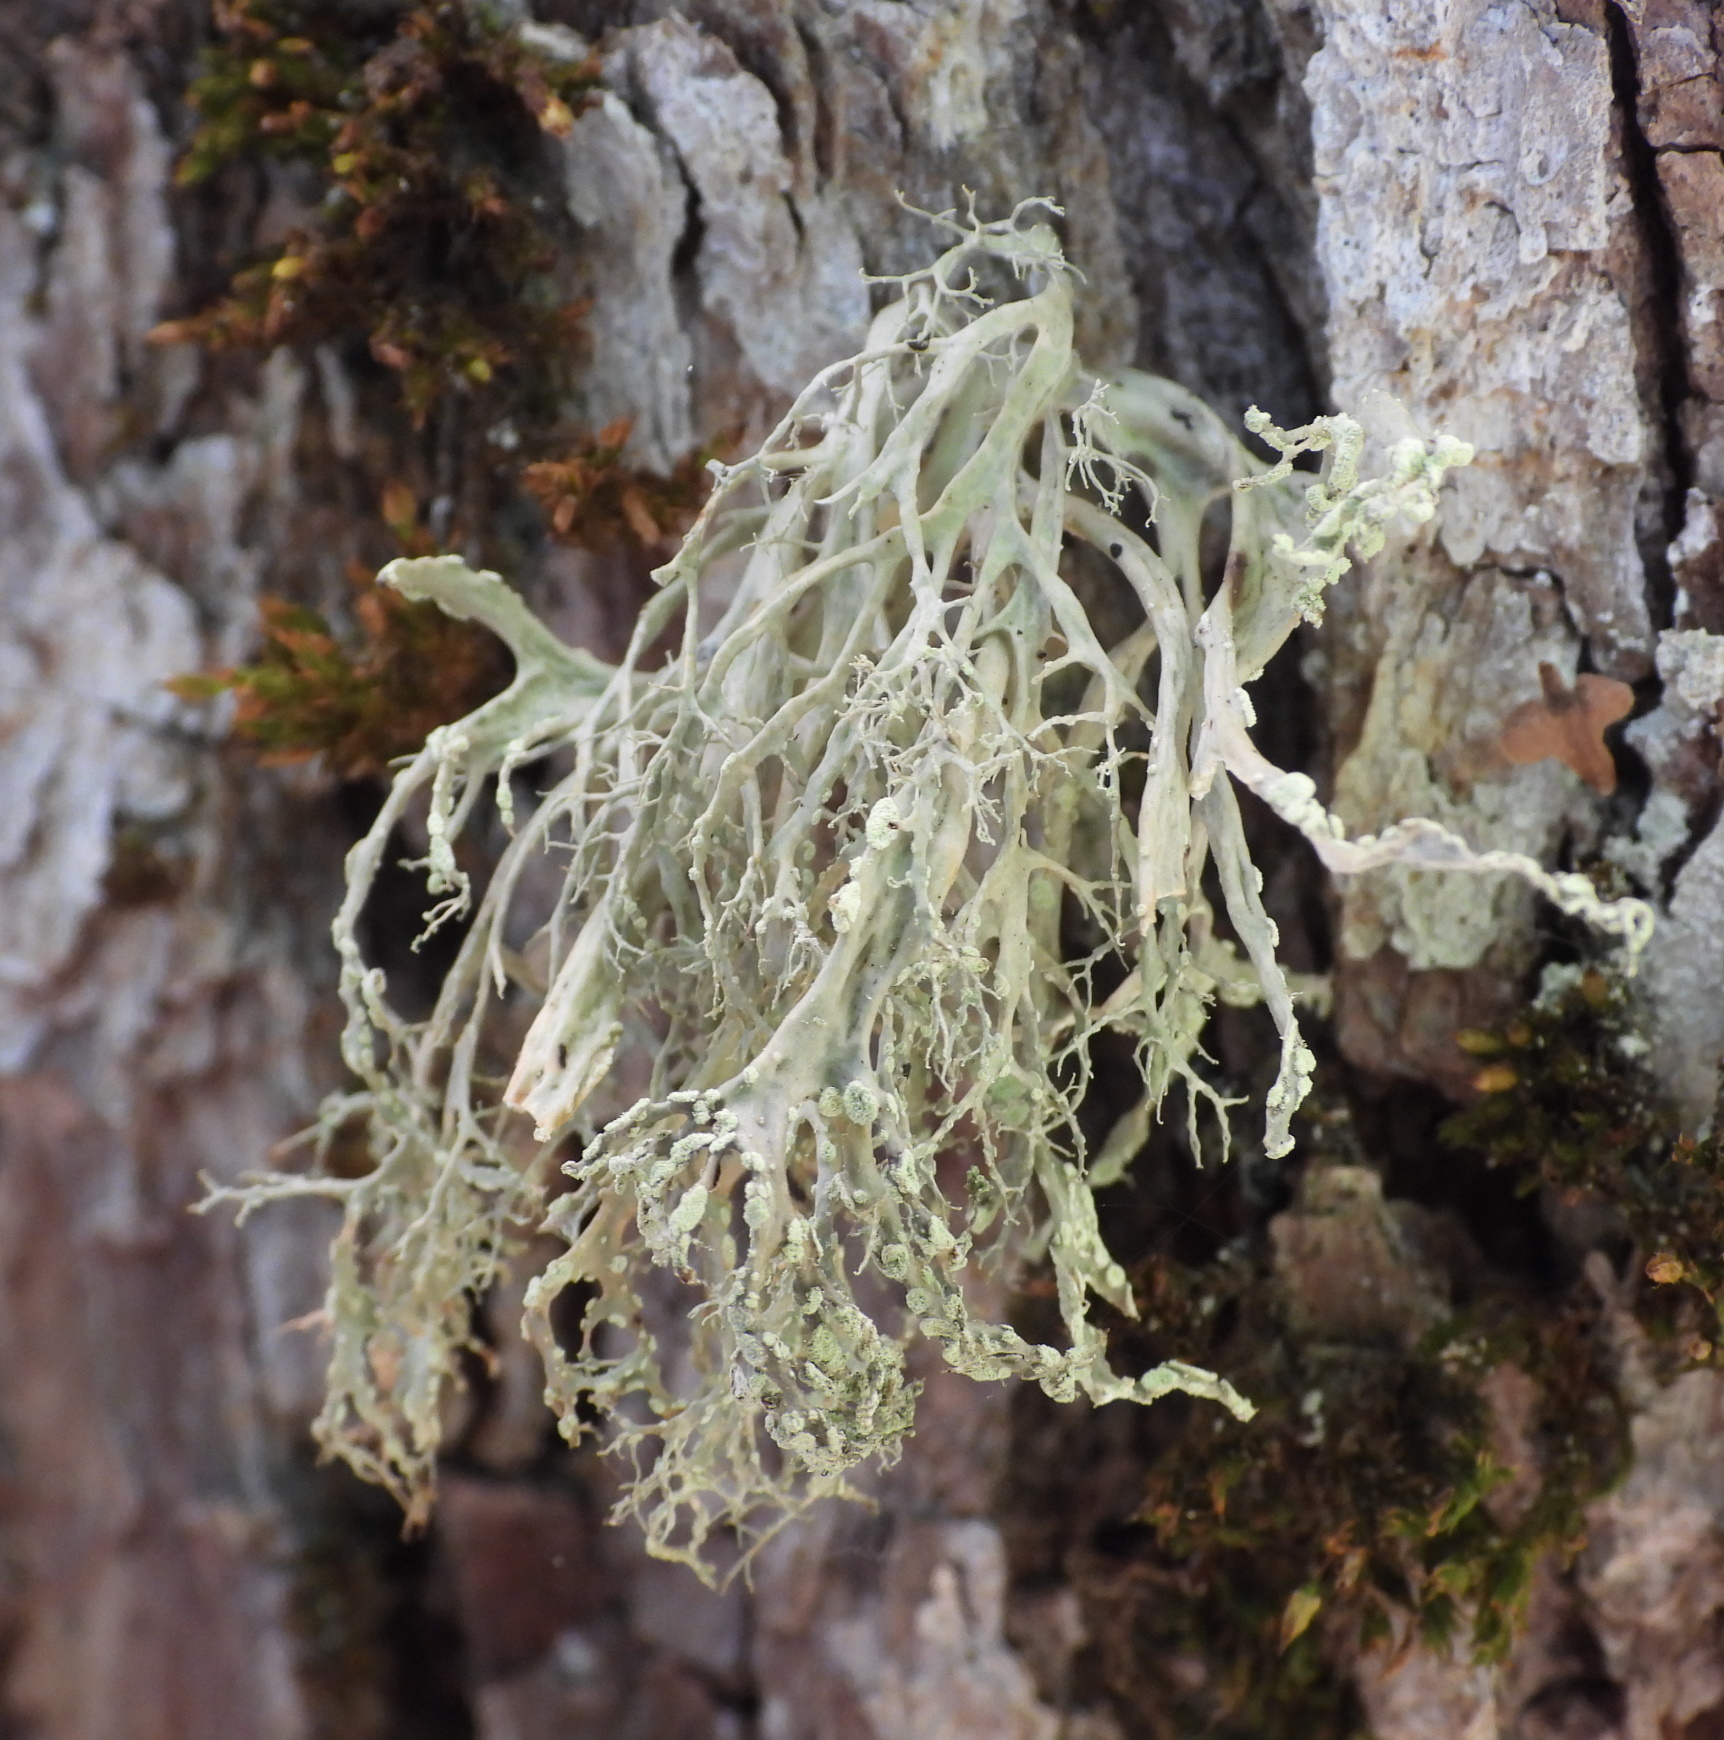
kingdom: Fungi
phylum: Ascomycota
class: Lecanoromycetes
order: Lecanorales
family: Ramalinaceae
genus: Ramalina
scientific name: Ramalina farinacea
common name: Farinose cartilage lichen
